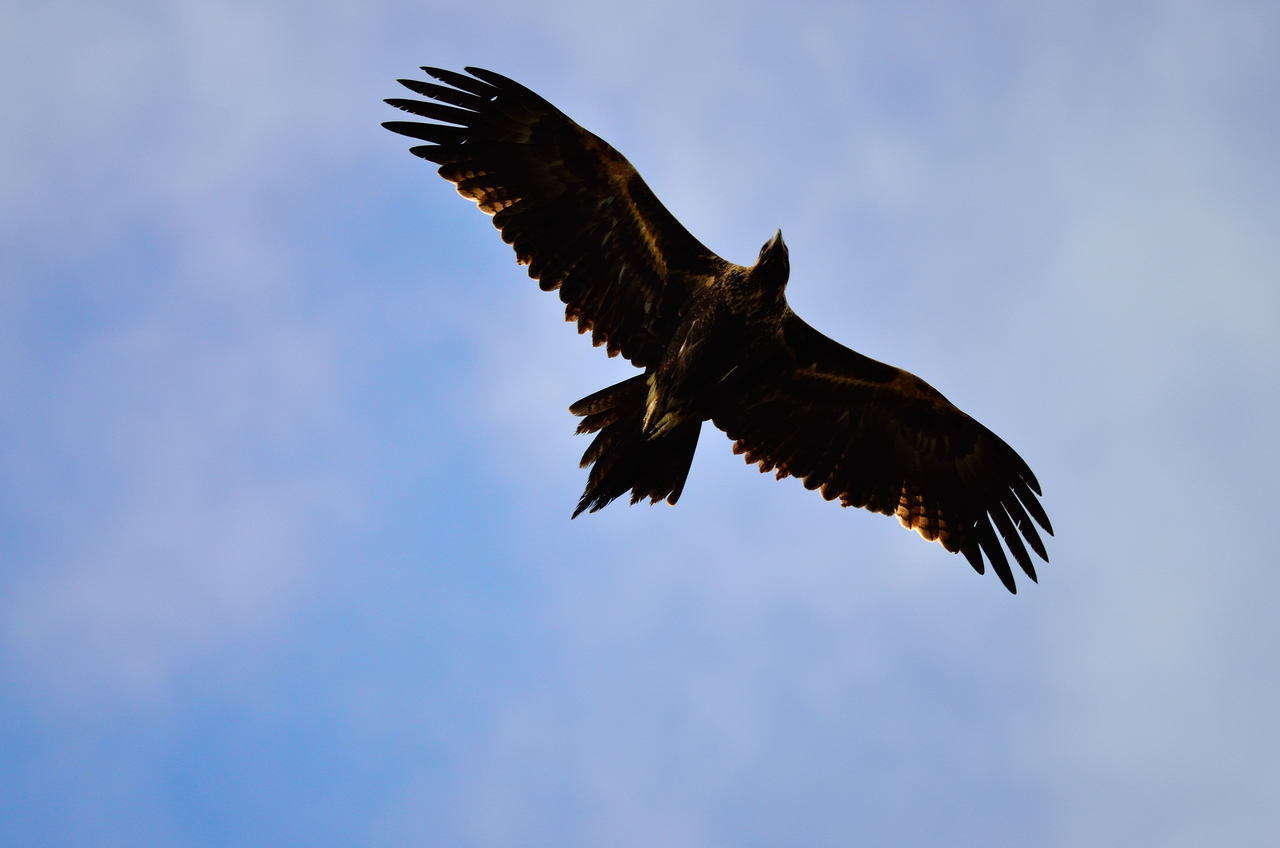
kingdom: Animalia
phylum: Chordata
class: Aves
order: Accipitriformes
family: Accipitridae
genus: Aquila
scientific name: Aquila audax
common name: Wedge-tailed eagle
